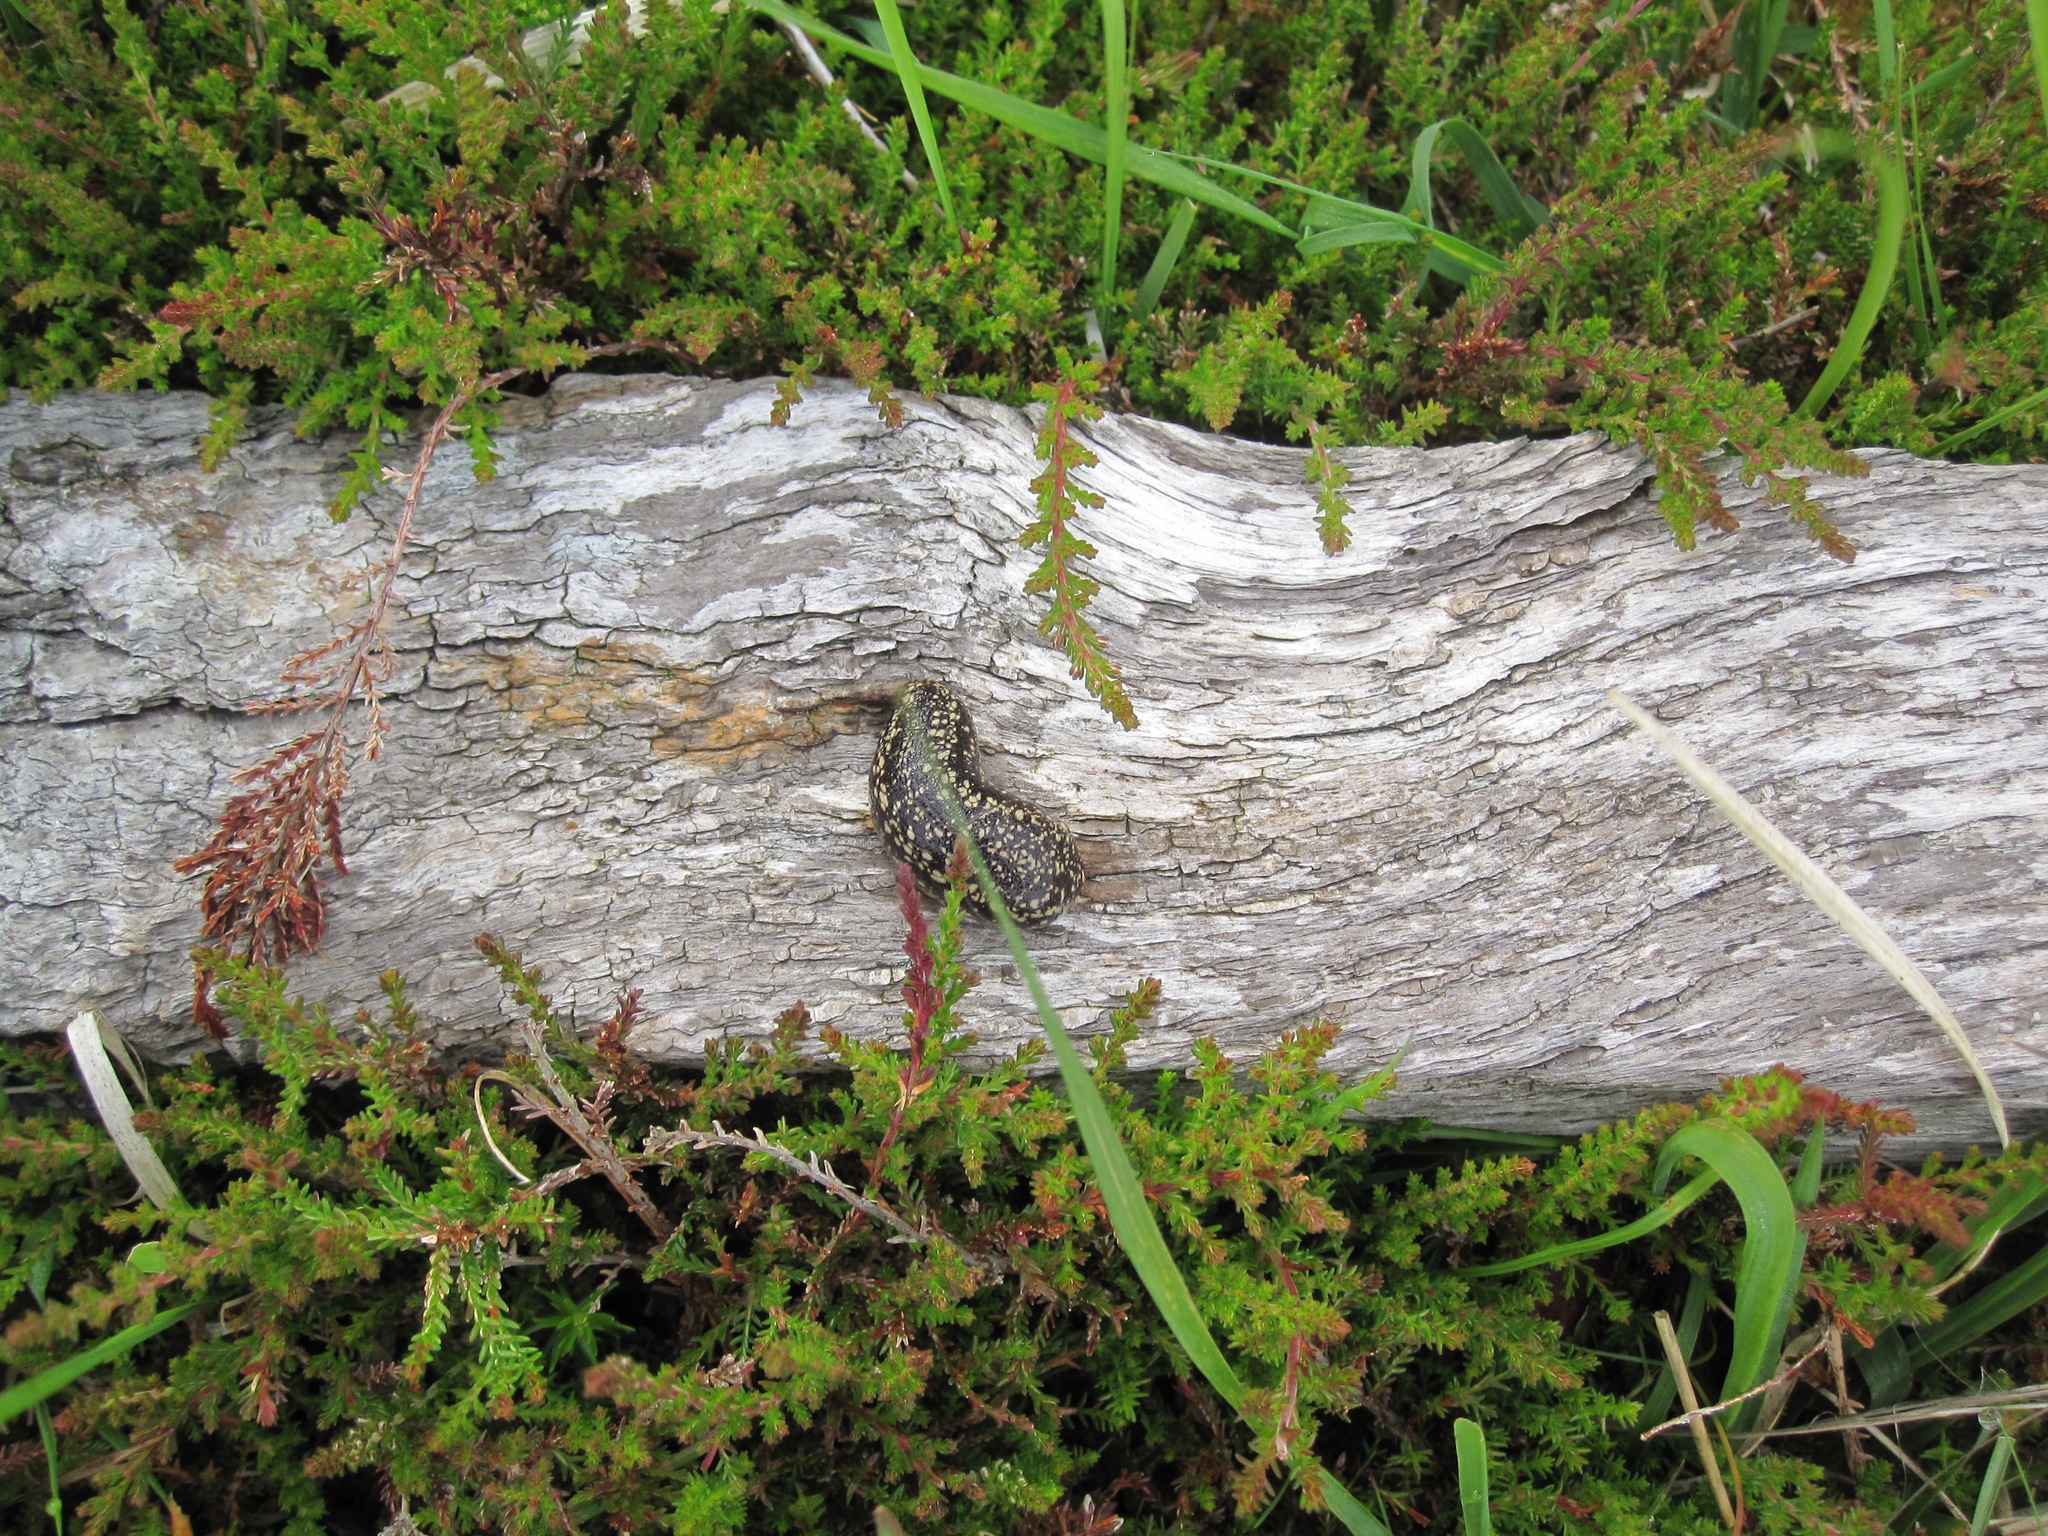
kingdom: Animalia
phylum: Mollusca
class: Gastropoda
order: Stylommatophora
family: Arionidae
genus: Geomalacus
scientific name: Geomalacus maculosus
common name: Kerry slug
